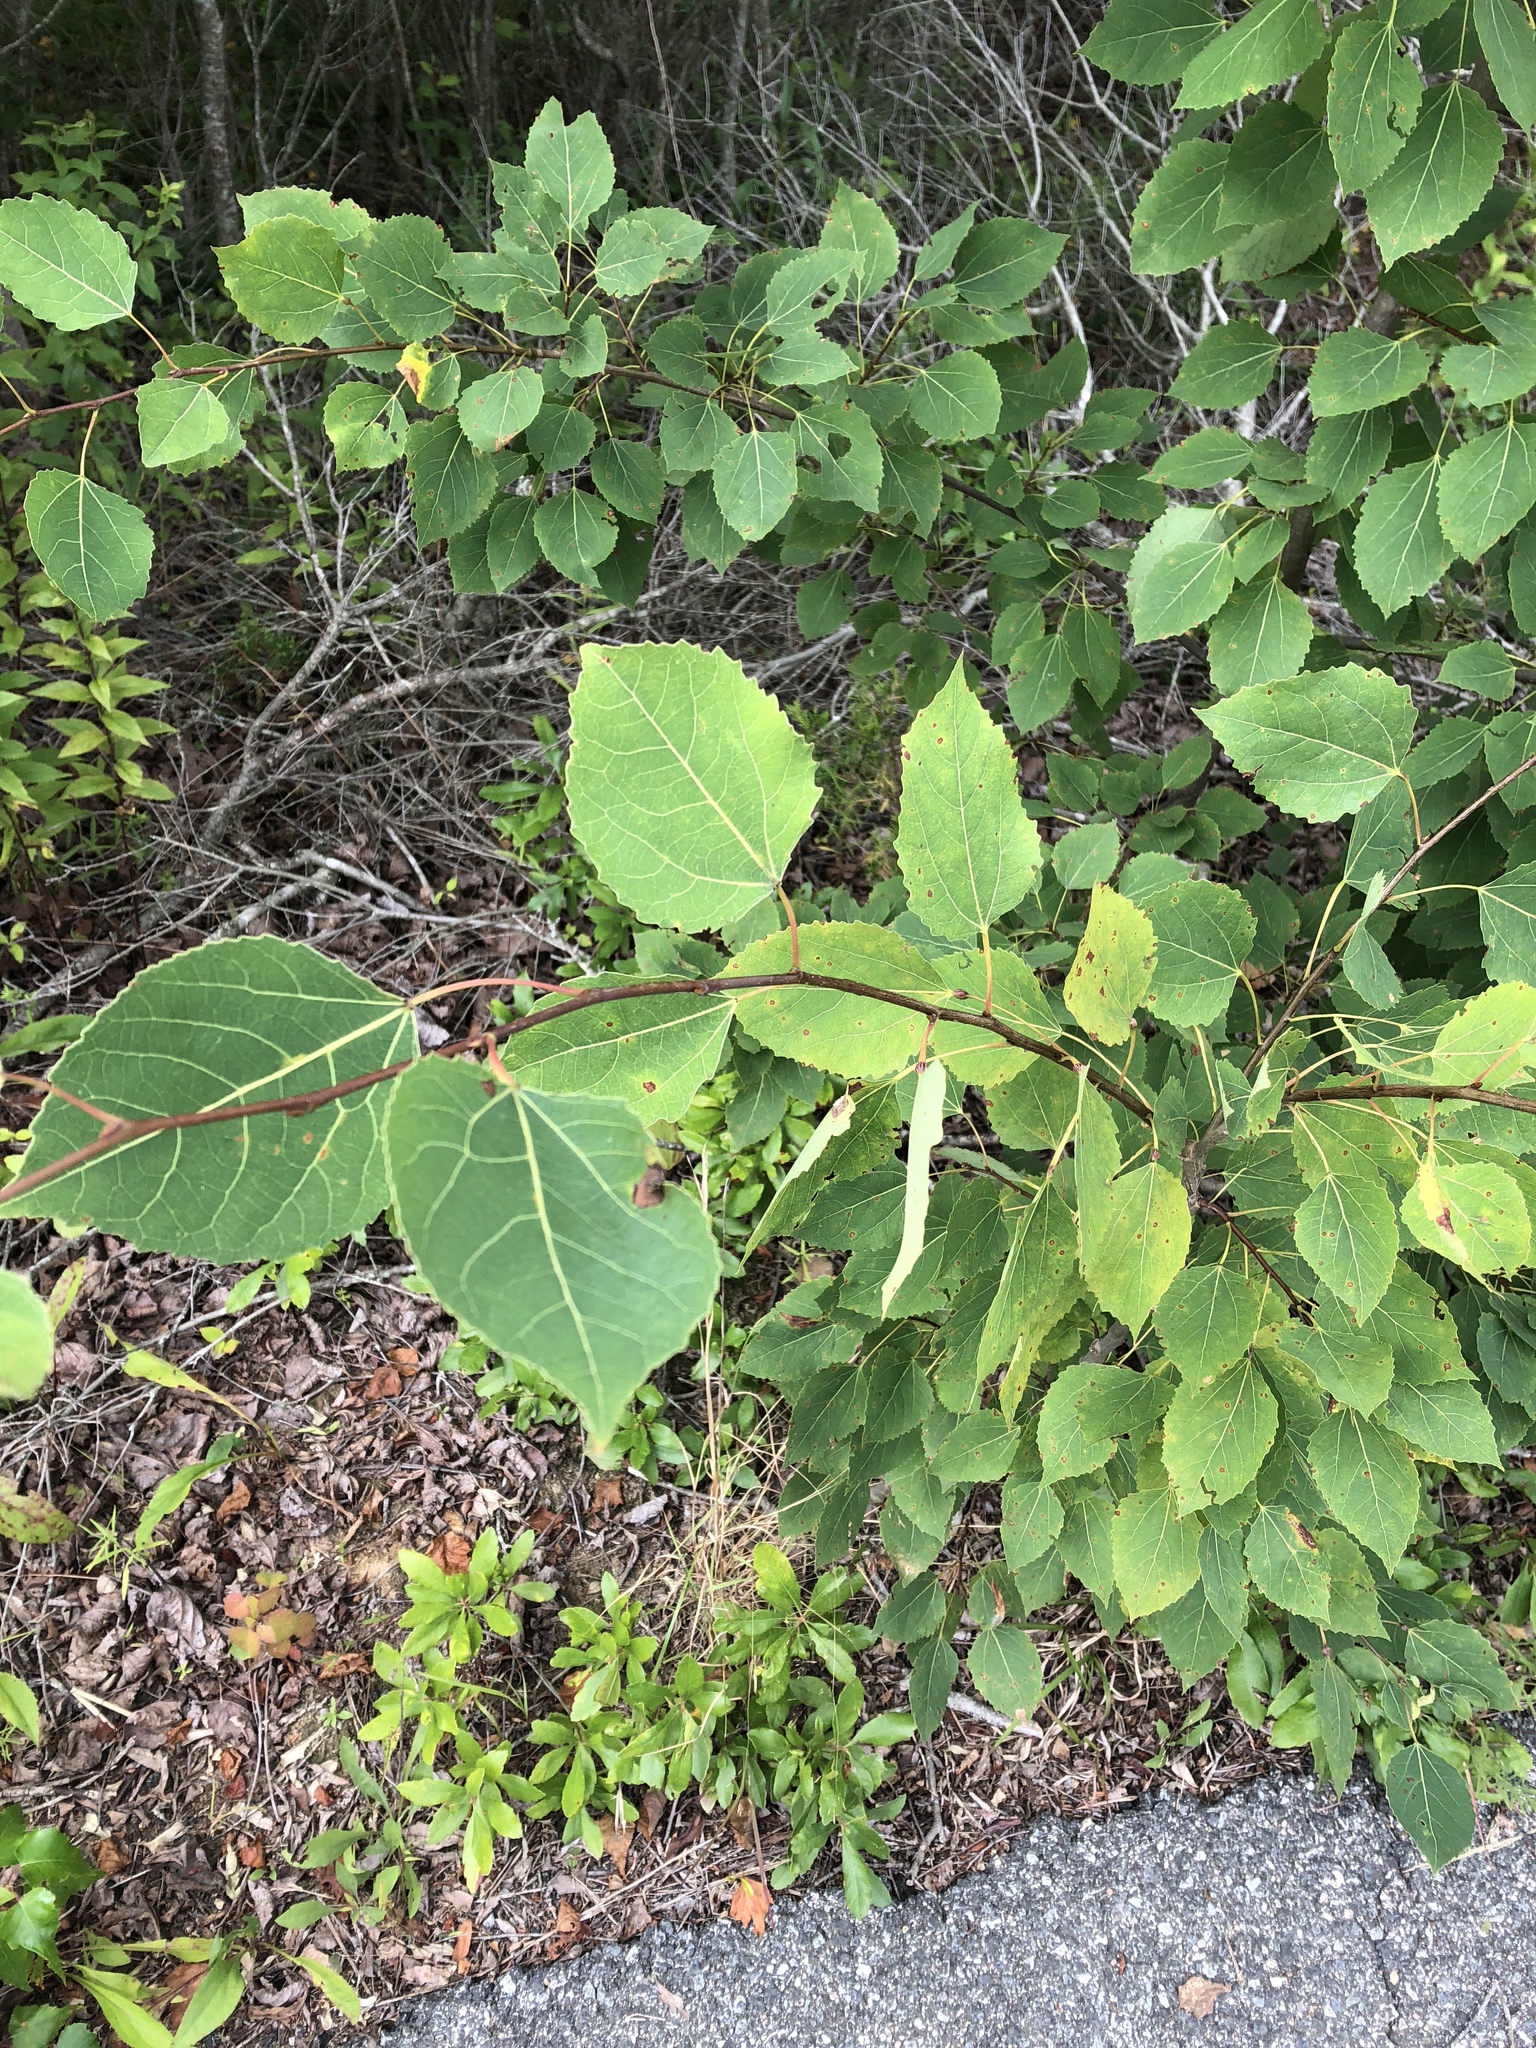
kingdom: Plantae
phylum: Tracheophyta
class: Magnoliopsida
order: Malpighiales
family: Salicaceae
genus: Populus
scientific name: Populus tremuloides
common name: Quaking aspen
